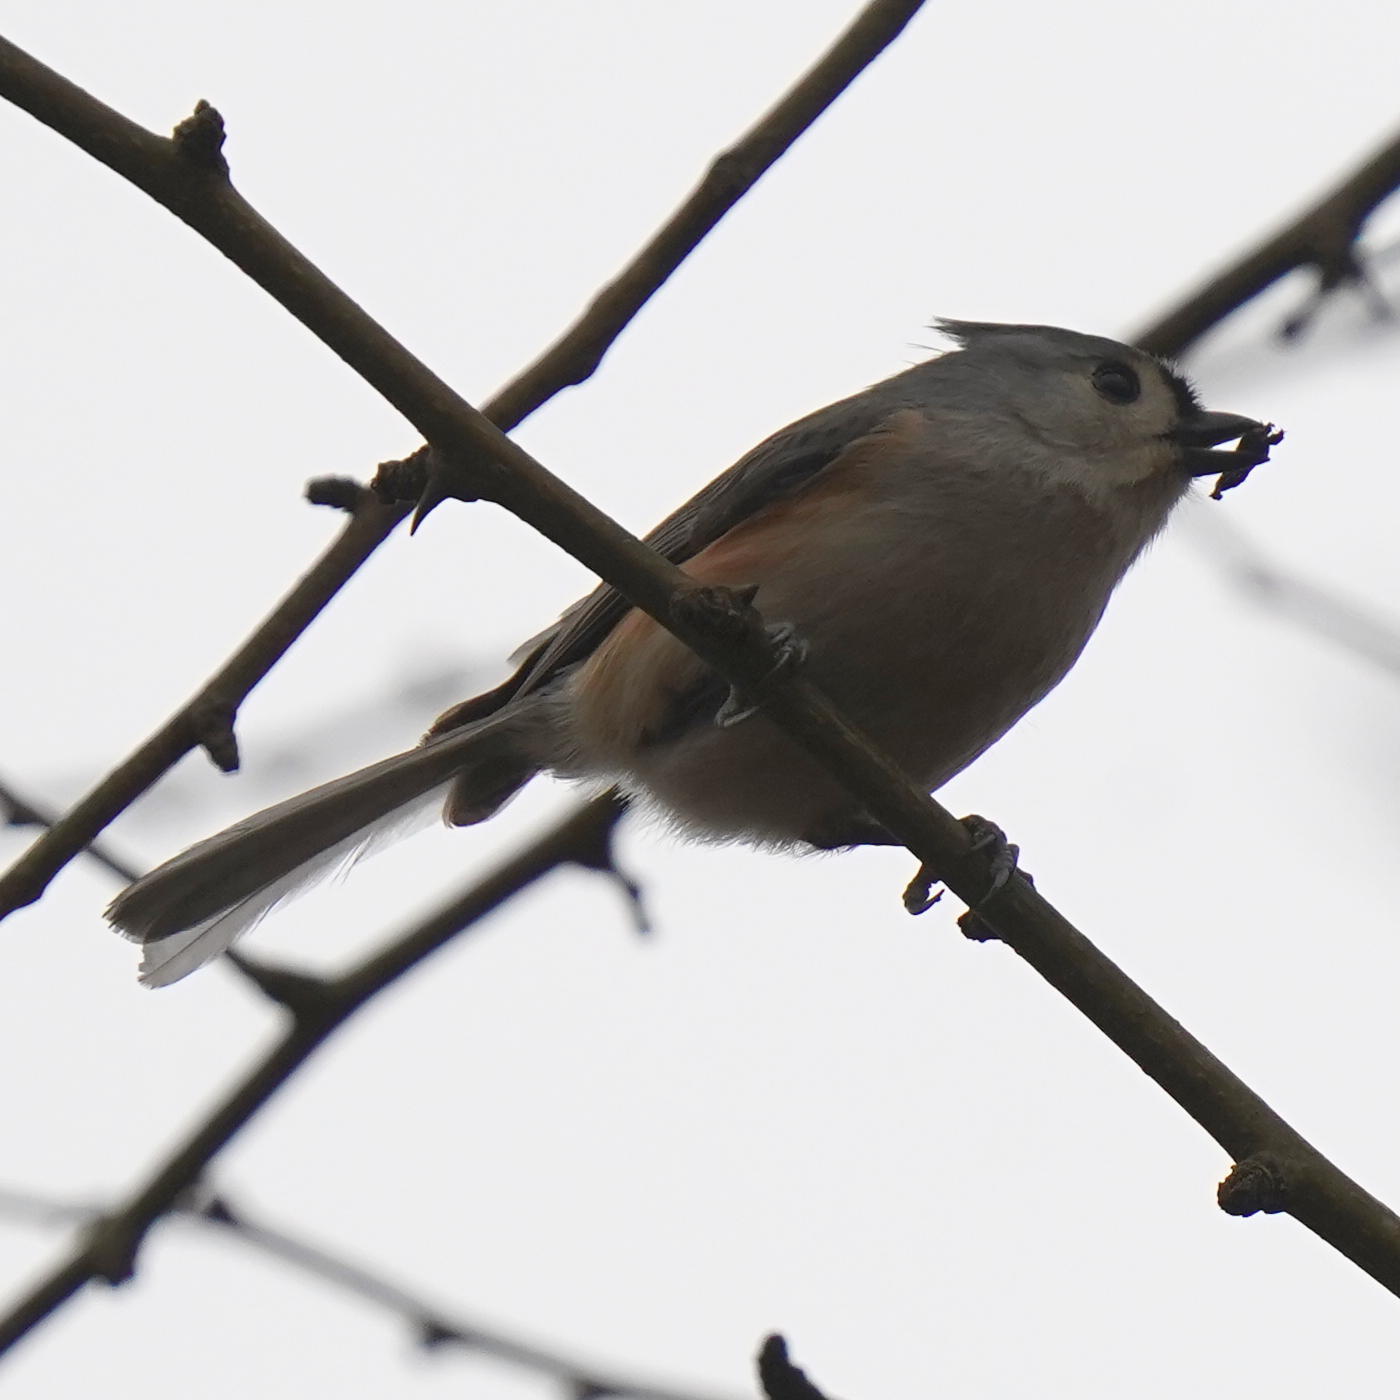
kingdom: Animalia
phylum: Chordata
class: Aves
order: Passeriformes
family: Paridae
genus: Baeolophus
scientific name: Baeolophus bicolor
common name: Tufted titmouse
